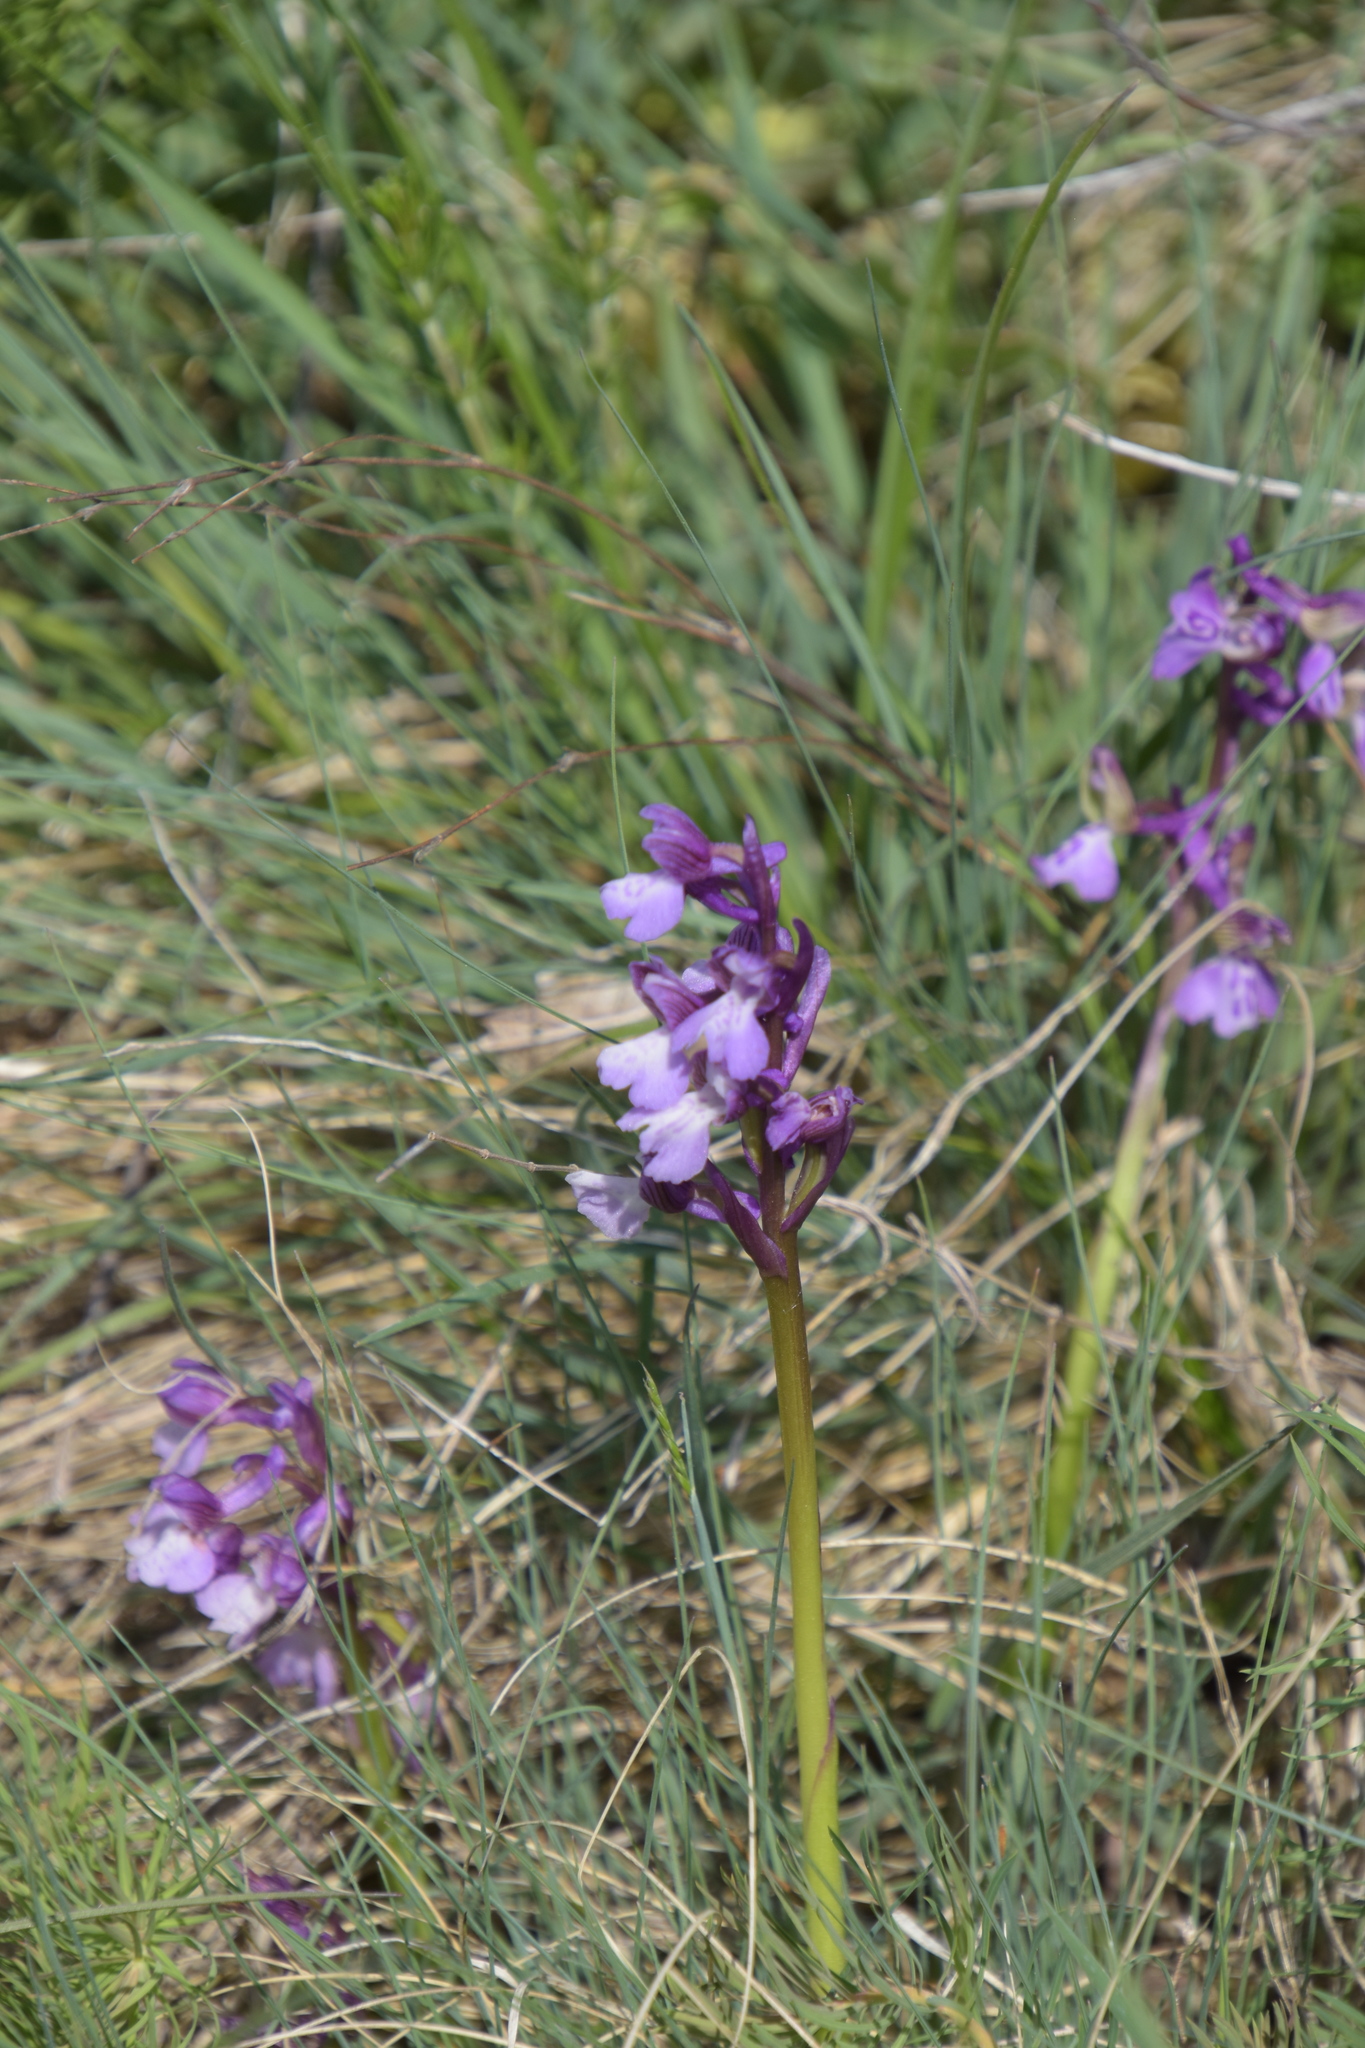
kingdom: Plantae
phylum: Tracheophyta
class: Liliopsida
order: Asparagales
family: Orchidaceae
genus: Anacamptis
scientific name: Anacamptis morio
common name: Green-winged orchid
